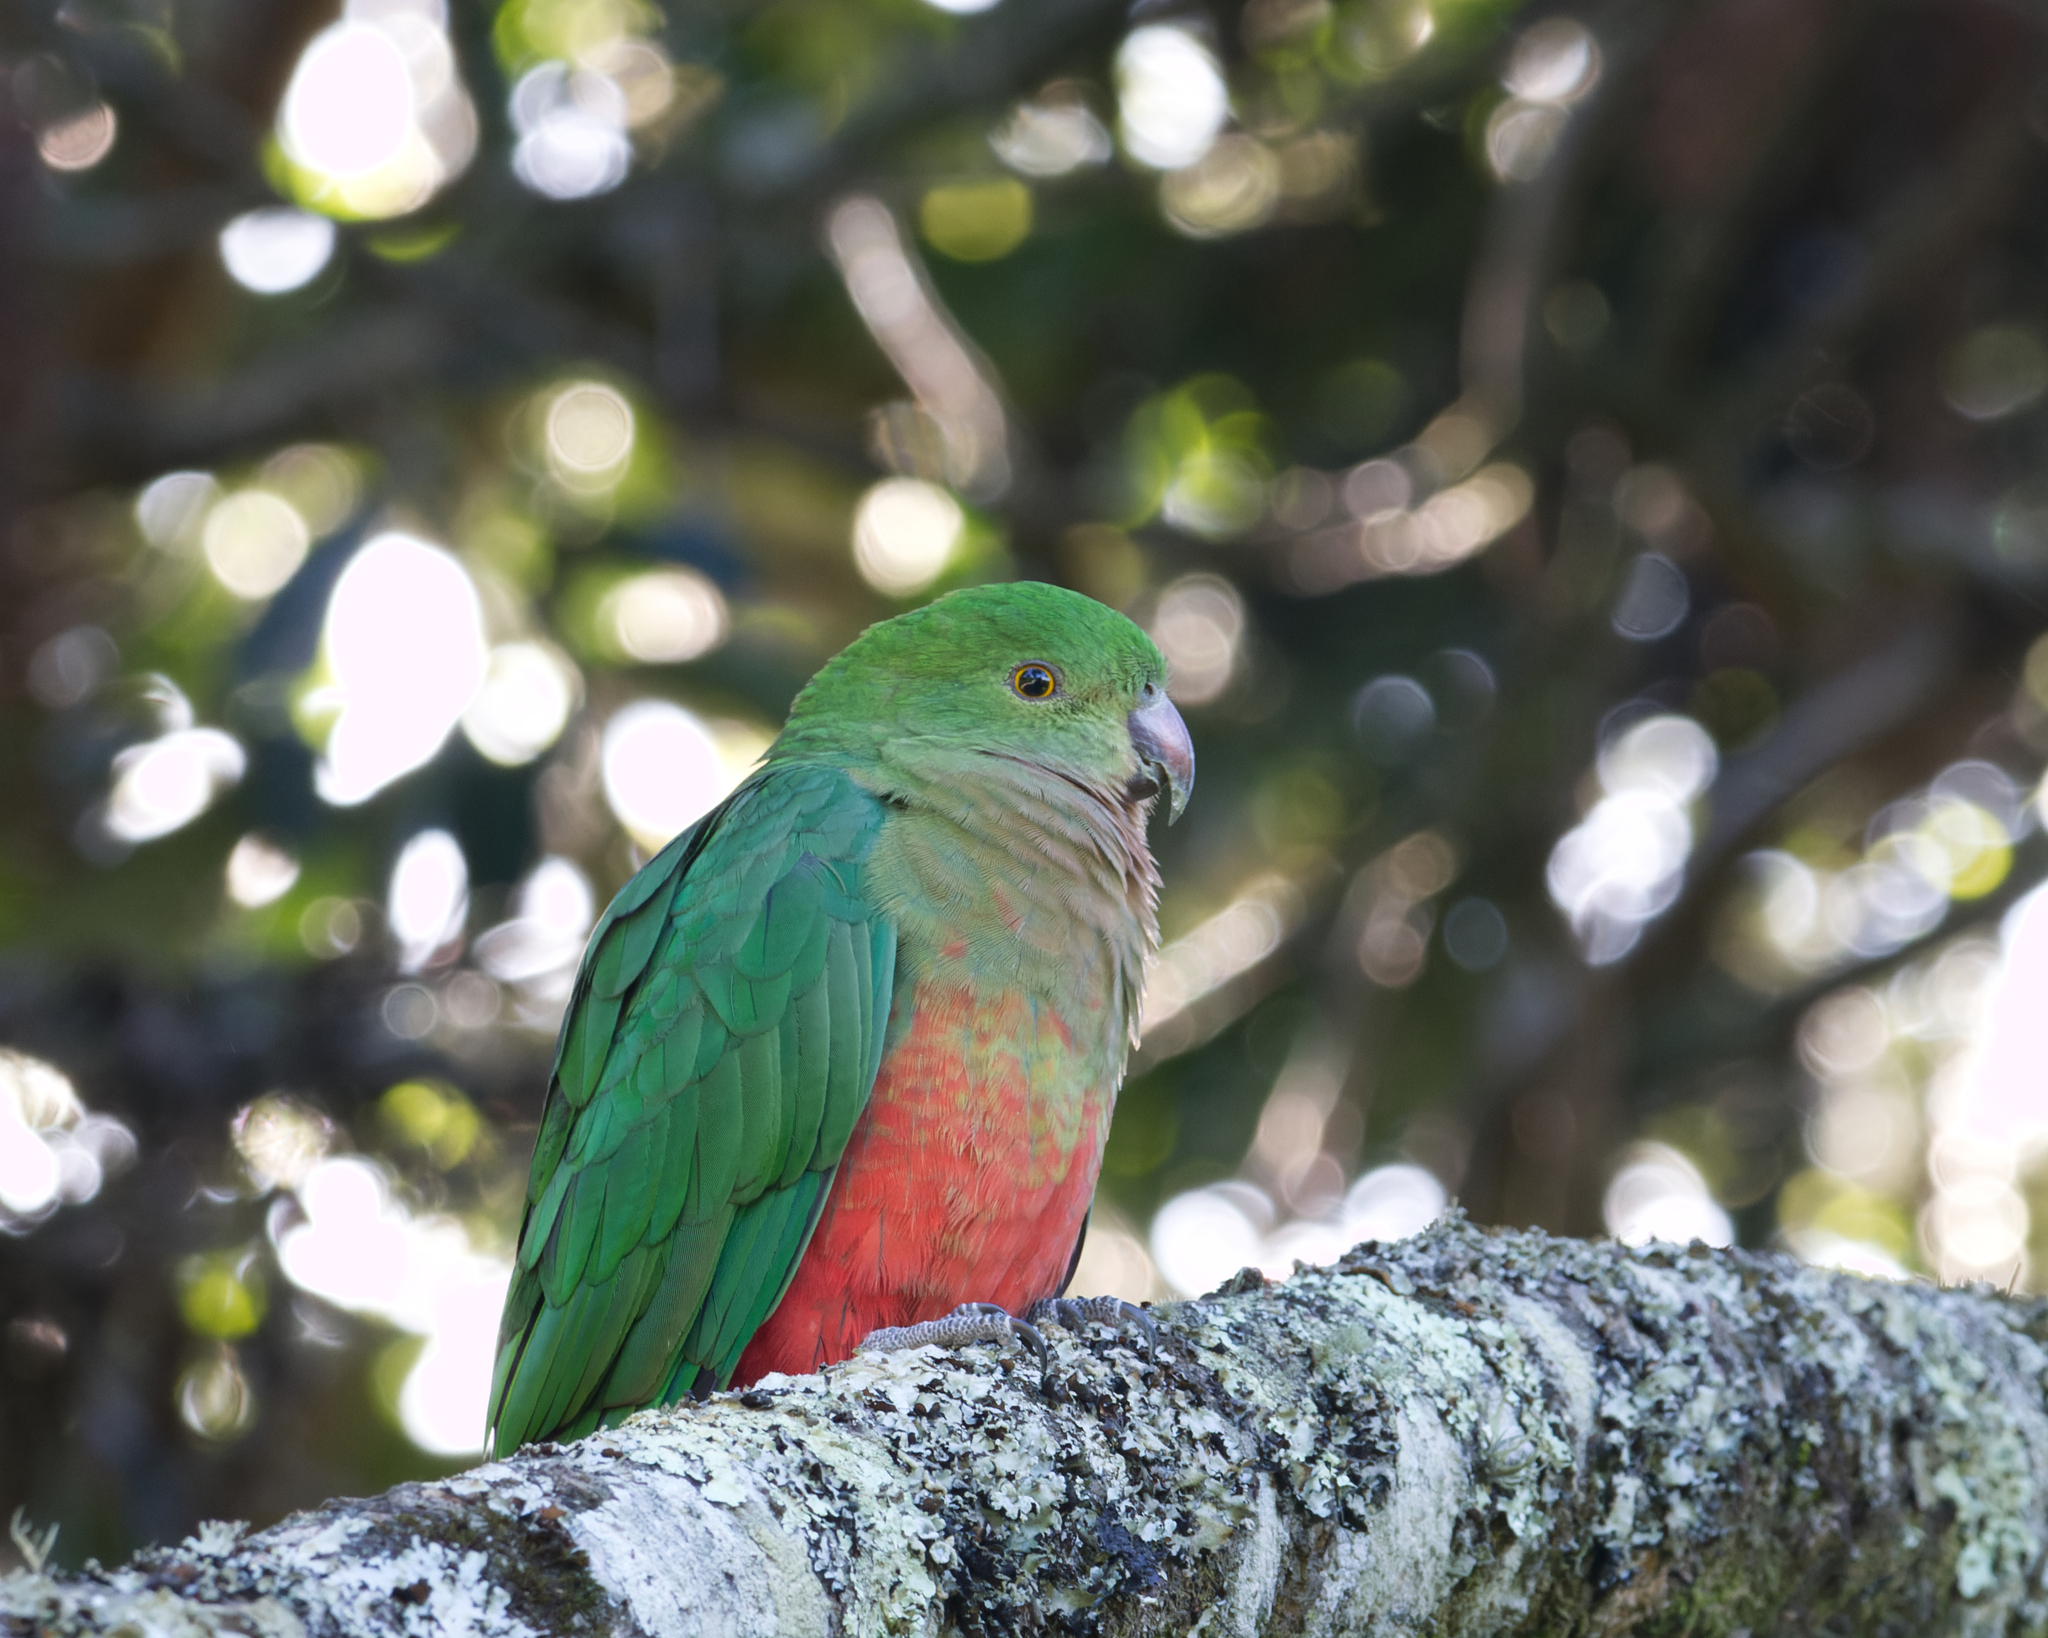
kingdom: Animalia
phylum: Chordata
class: Aves
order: Psittaciformes
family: Psittacidae
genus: Alisterus
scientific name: Alisterus scapularis
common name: Australian king parrot
